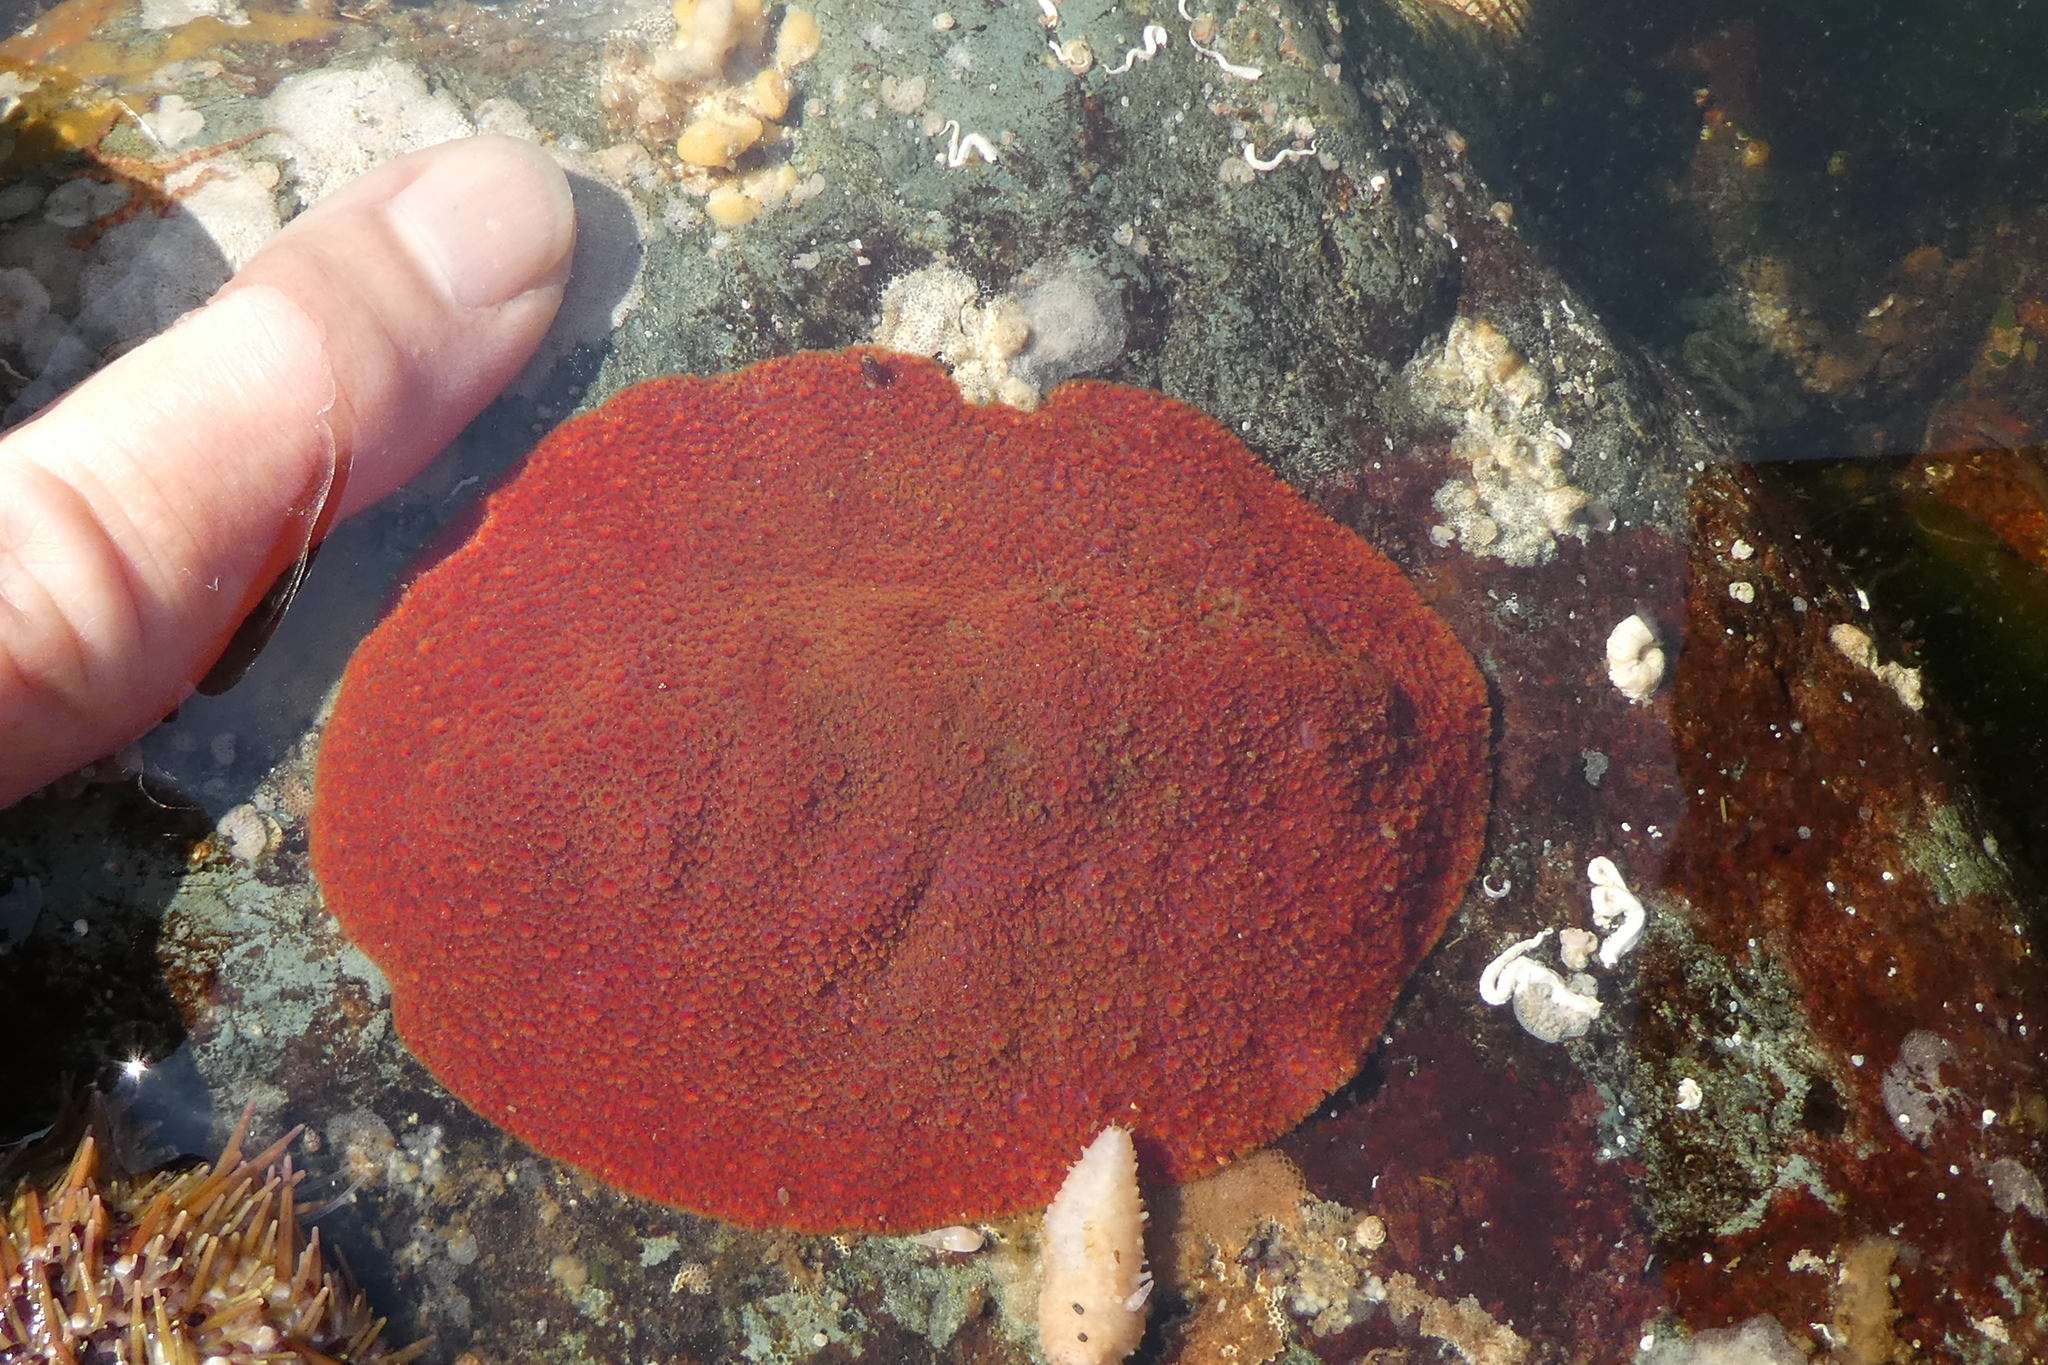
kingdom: Animalia
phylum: Mollusca
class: Polyplacophora
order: Chitonida
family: Acanthochitonidae
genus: Cryptochiton
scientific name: Cryptochiton stelleri
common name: Giant pacific chiton
